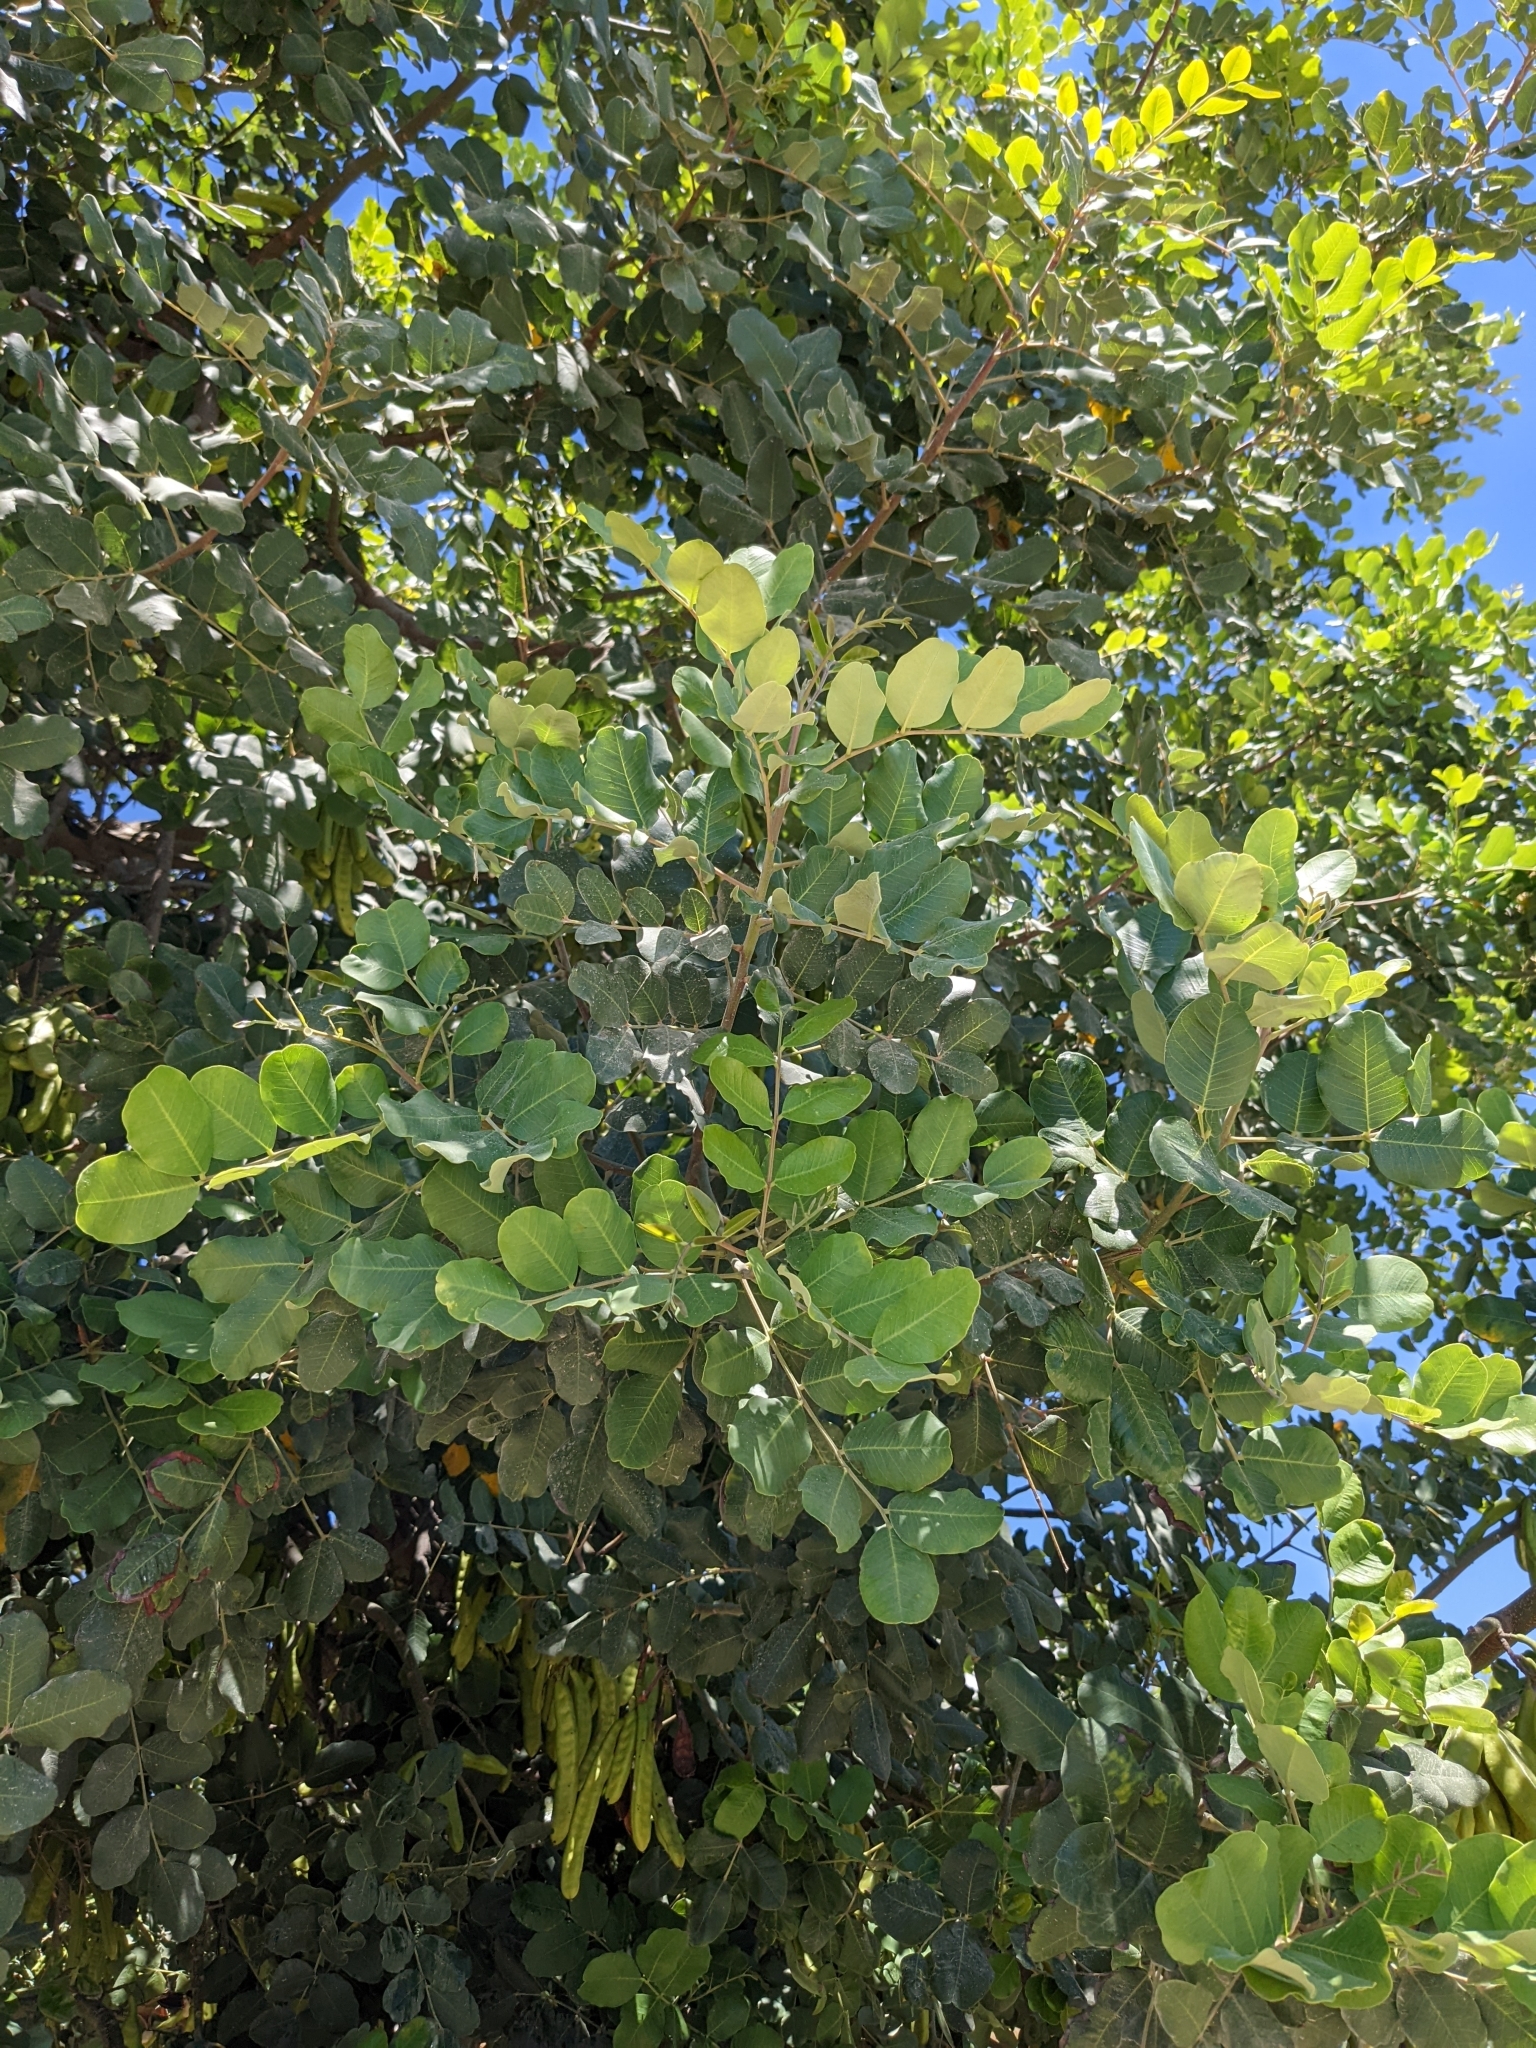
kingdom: Plantae
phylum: Tracheophyta
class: Magnoliopsida
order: Fabales
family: Fabaceae
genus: Ceratonia
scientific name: Ceratonia siliqua
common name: Carob
